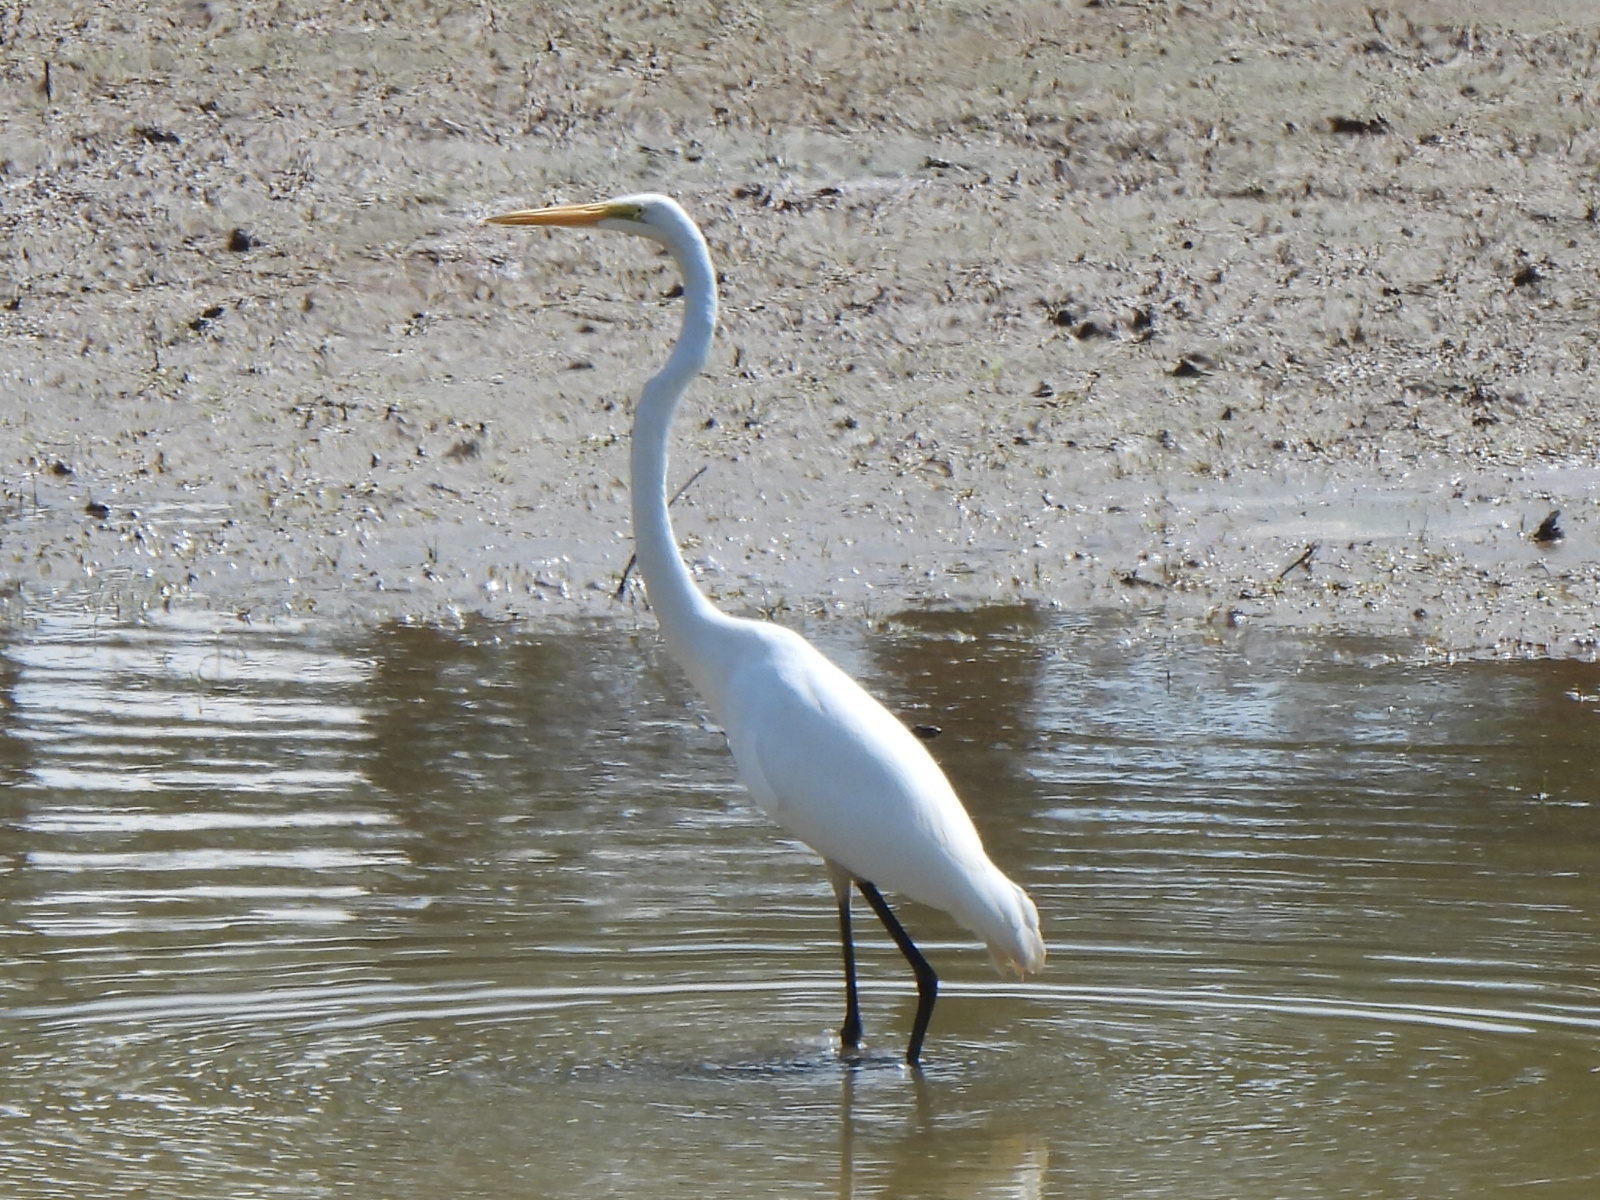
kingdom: Animalia
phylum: Chordata
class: Aves
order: Pelecaniformes
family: Ardeidae
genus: Ardea
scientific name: Ardea alba
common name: Great egret
